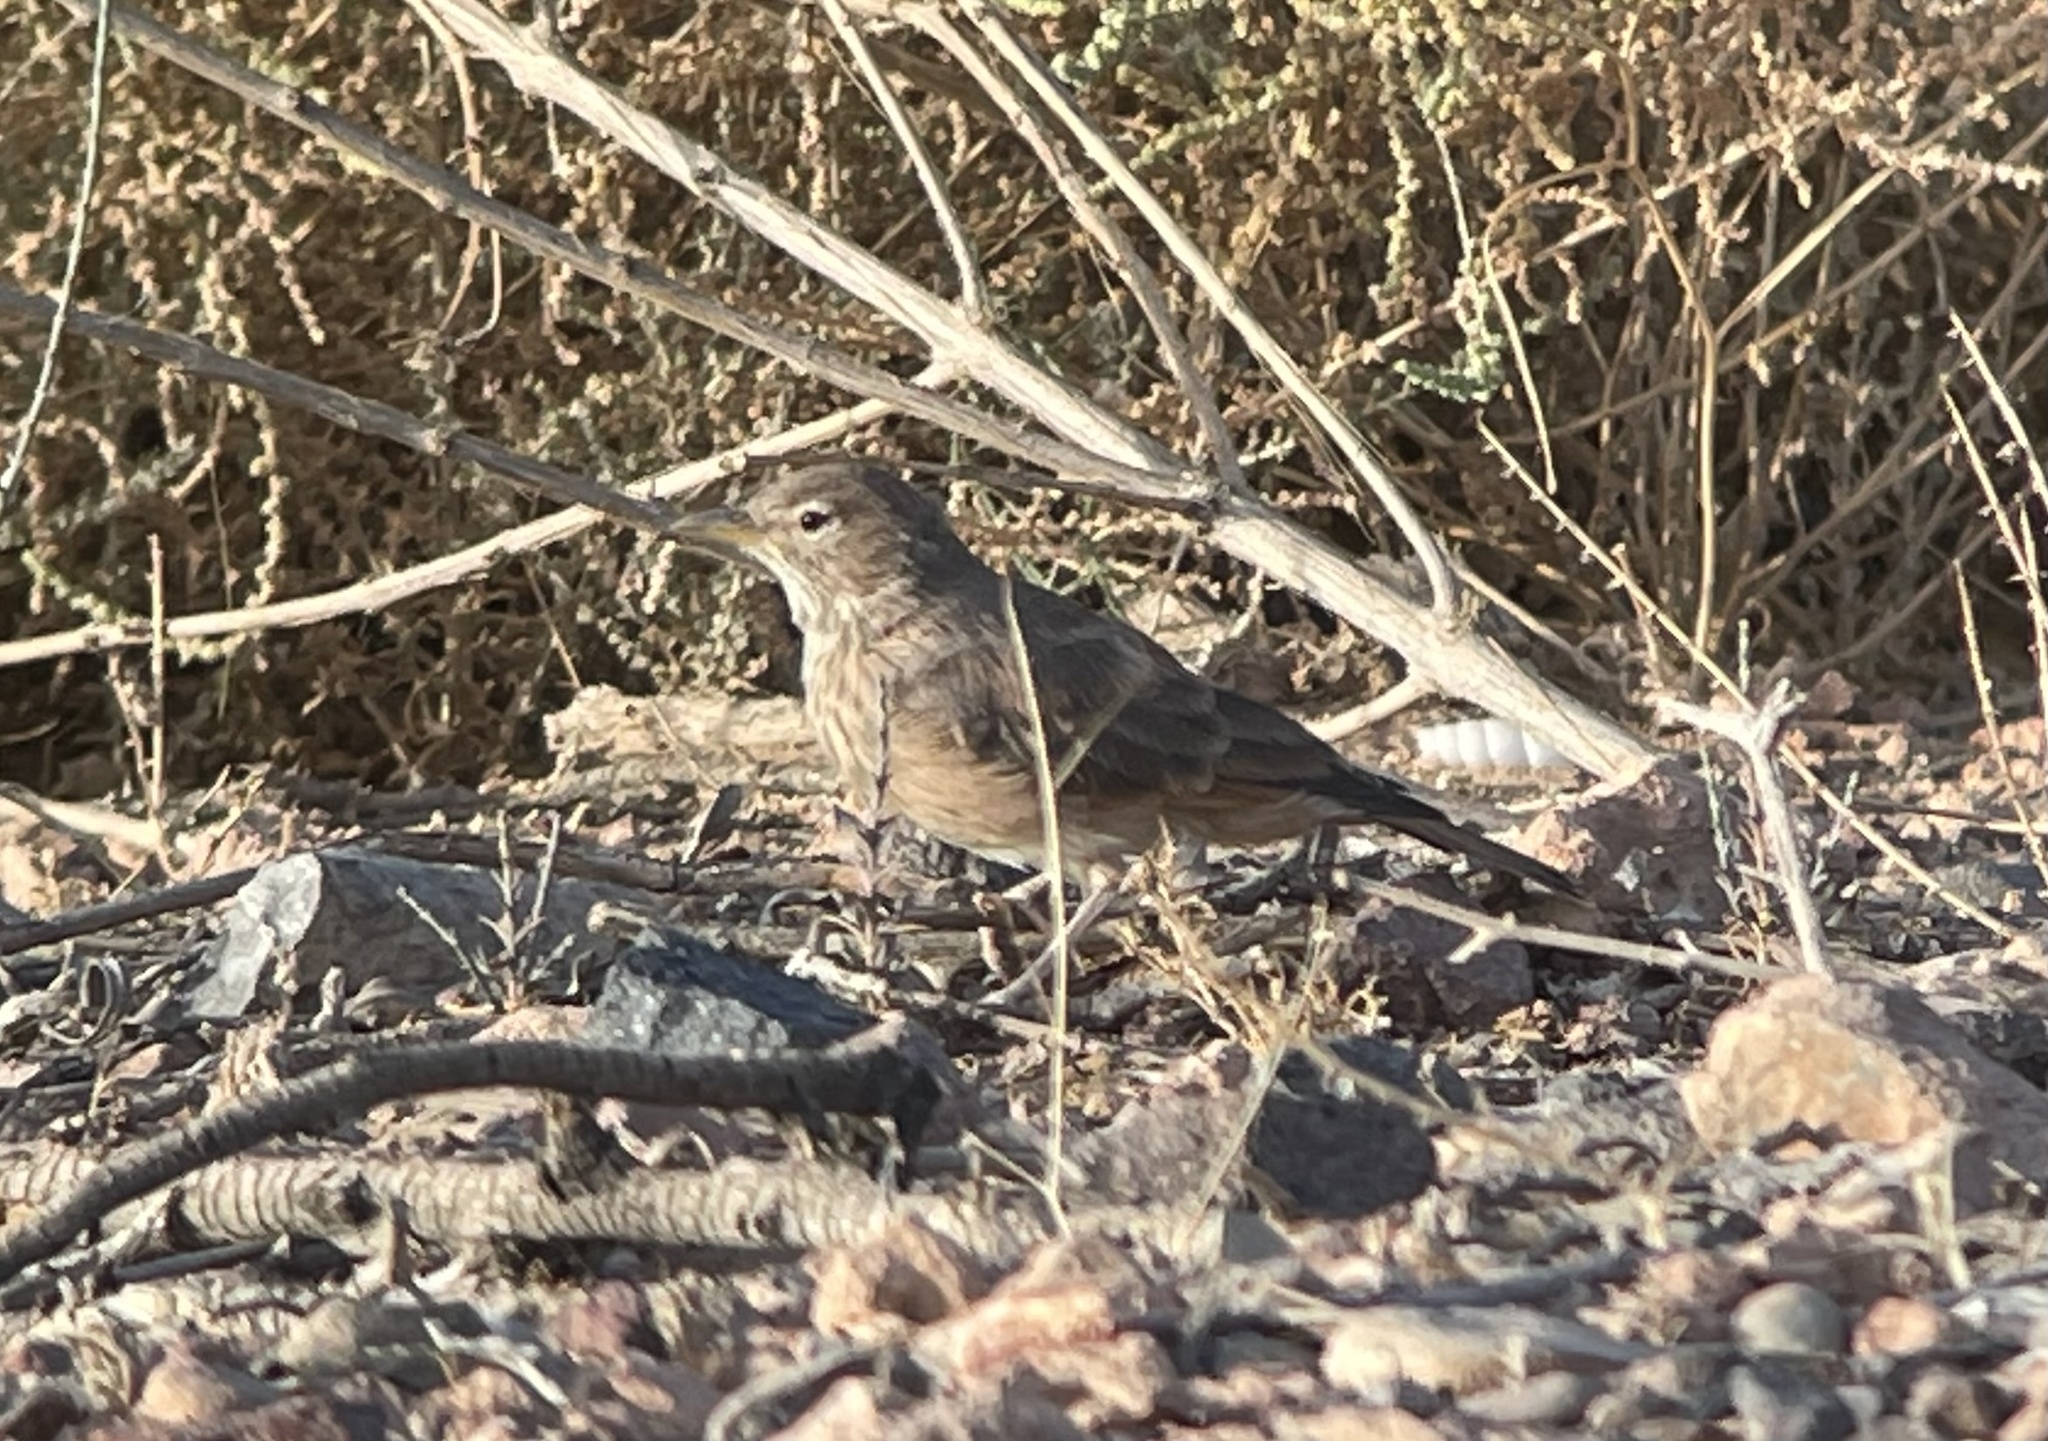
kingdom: Animalia
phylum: Chordata
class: Aves
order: Passeriformes
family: Alaudidae
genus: Ammomanes
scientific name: Ammomanes deserti
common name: Desert lark
